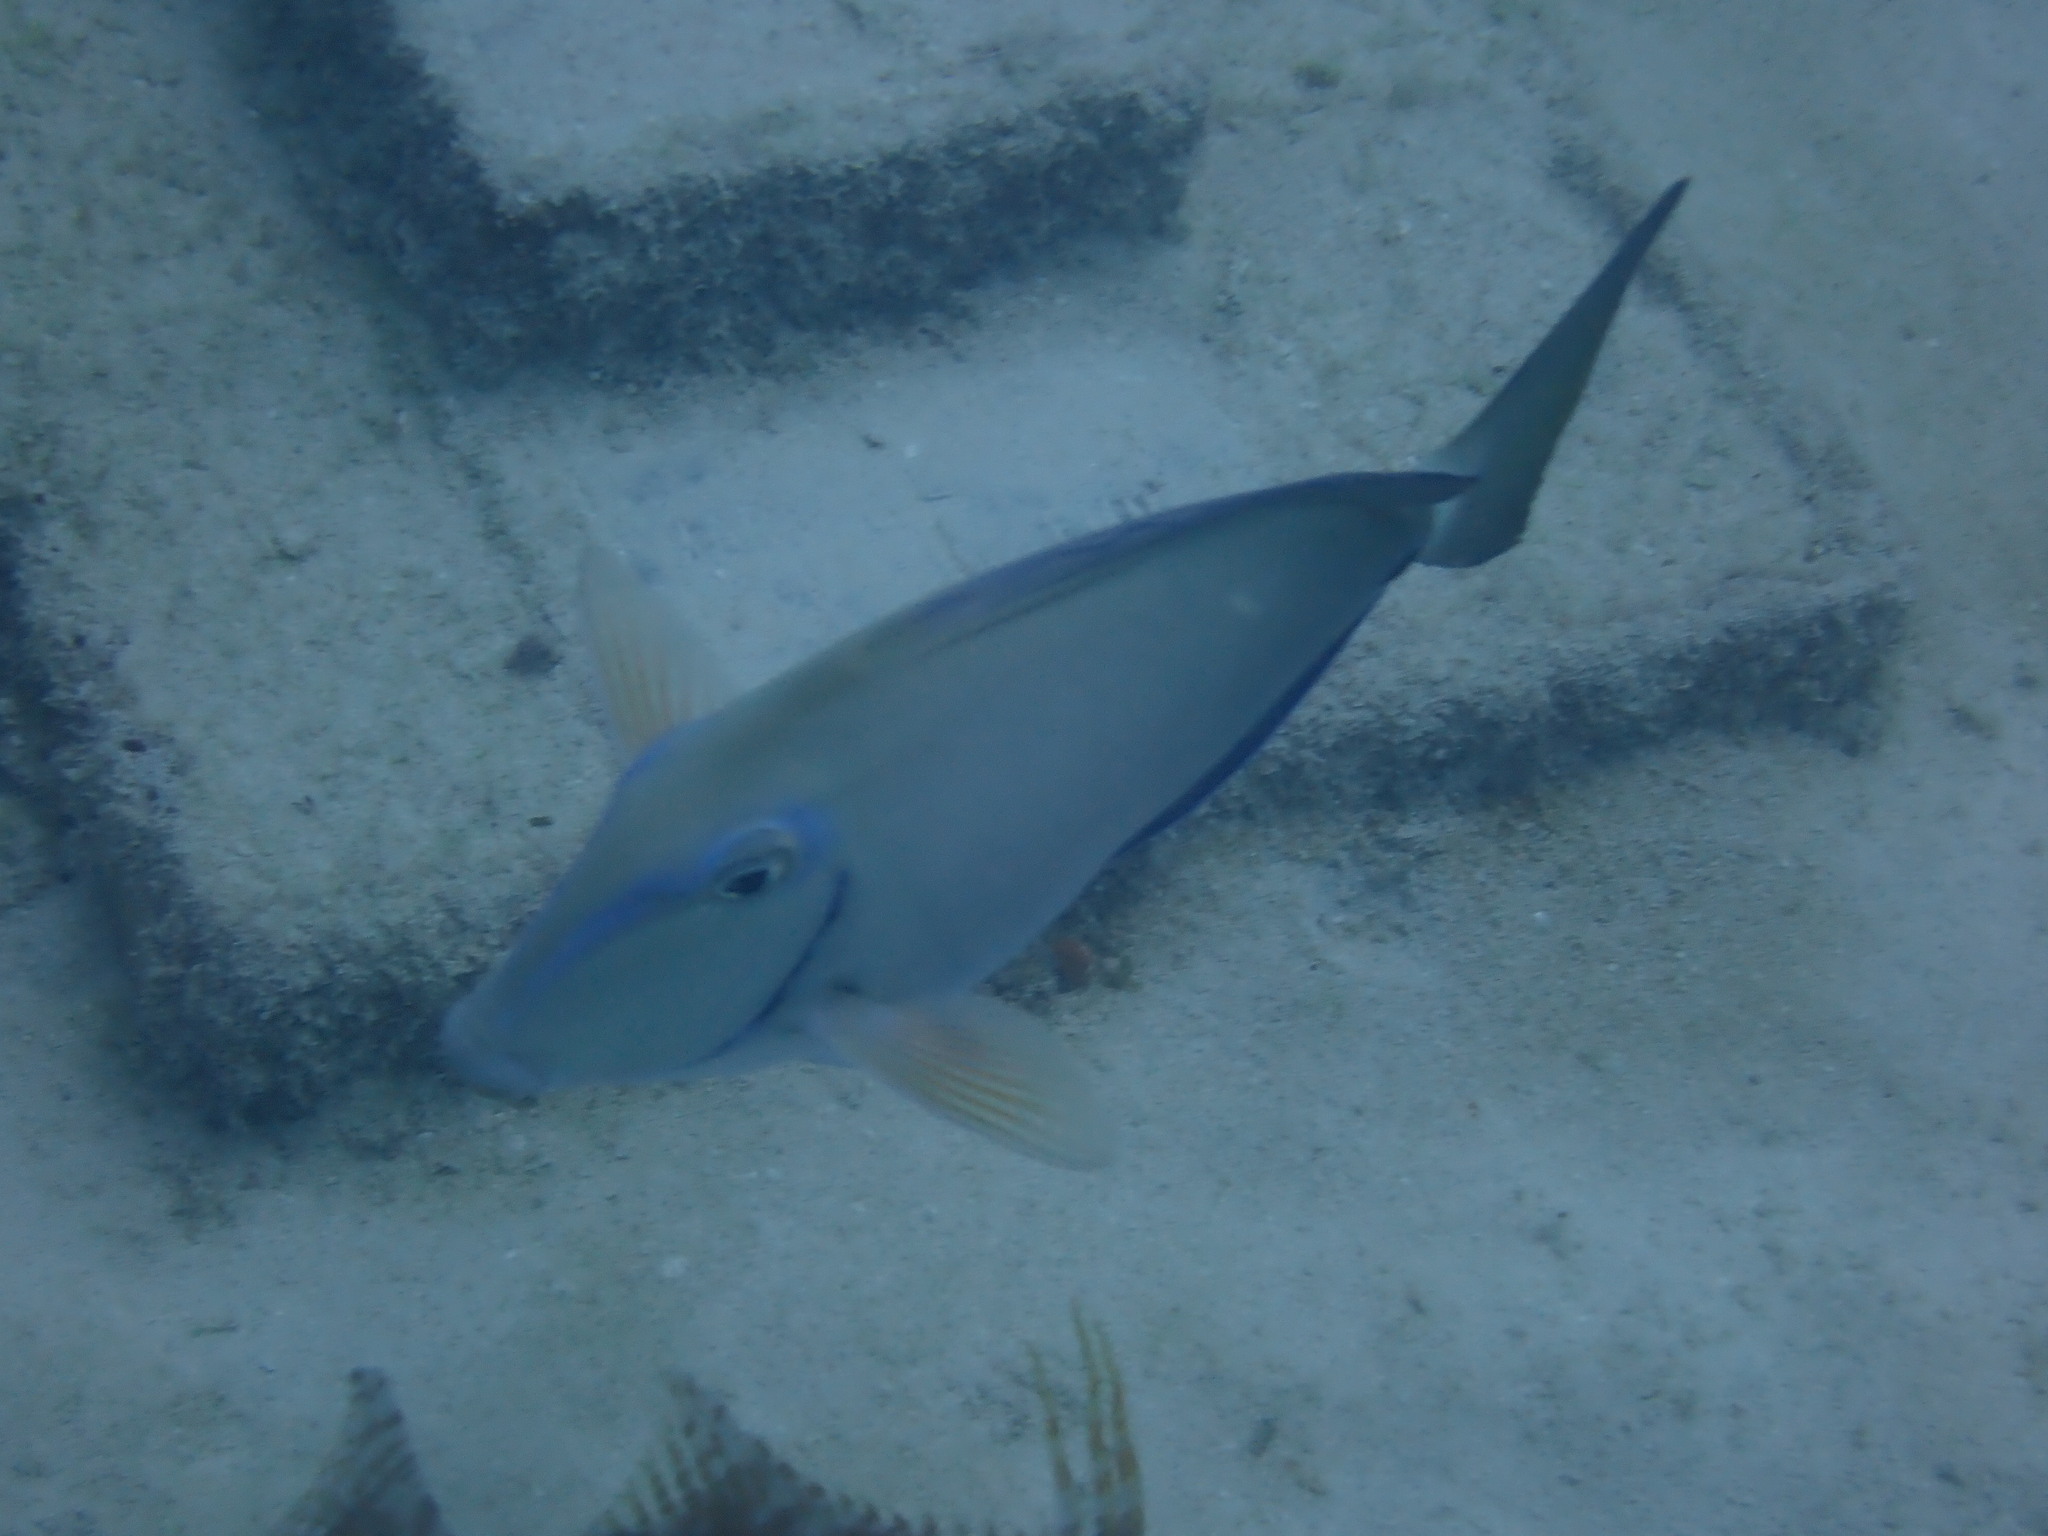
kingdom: Animalia
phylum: Chordata
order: Perciformes
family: Acanthuridae
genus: Acanthurus
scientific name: Acanthurus bahianus
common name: Ocean surgeon
